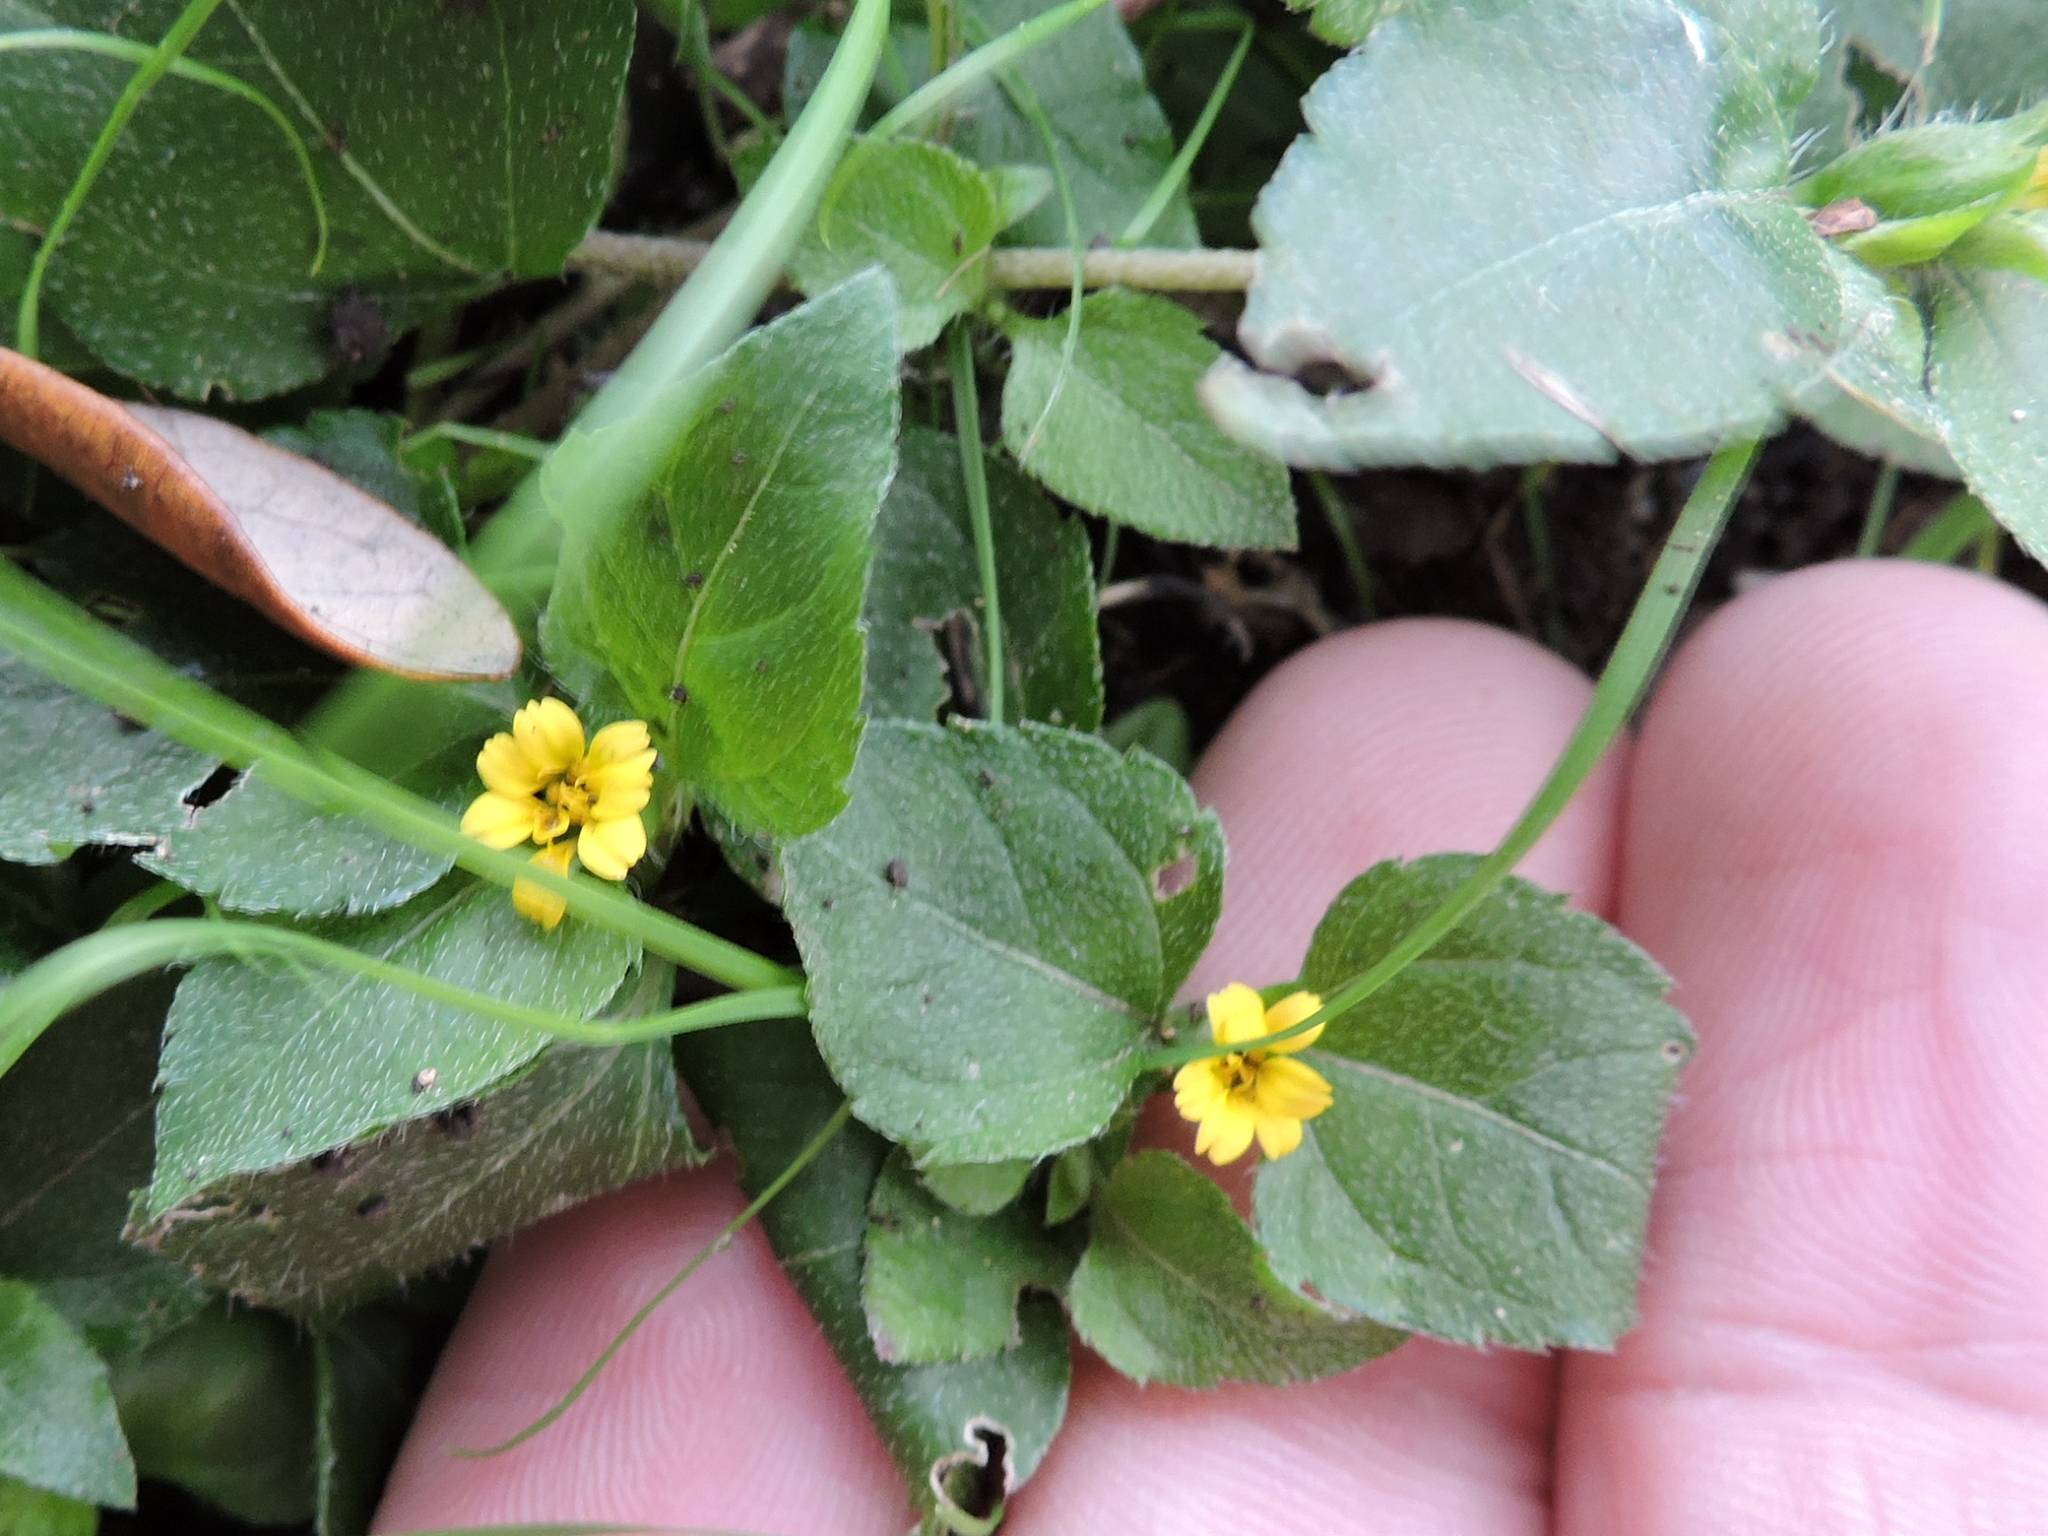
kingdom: Plantae
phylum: Tracheophyta
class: Magnoliopsida
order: Asterales
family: Asteraceae
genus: Calyptocarpus
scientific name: Calyptocarpus vialis
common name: Straggler daisy
